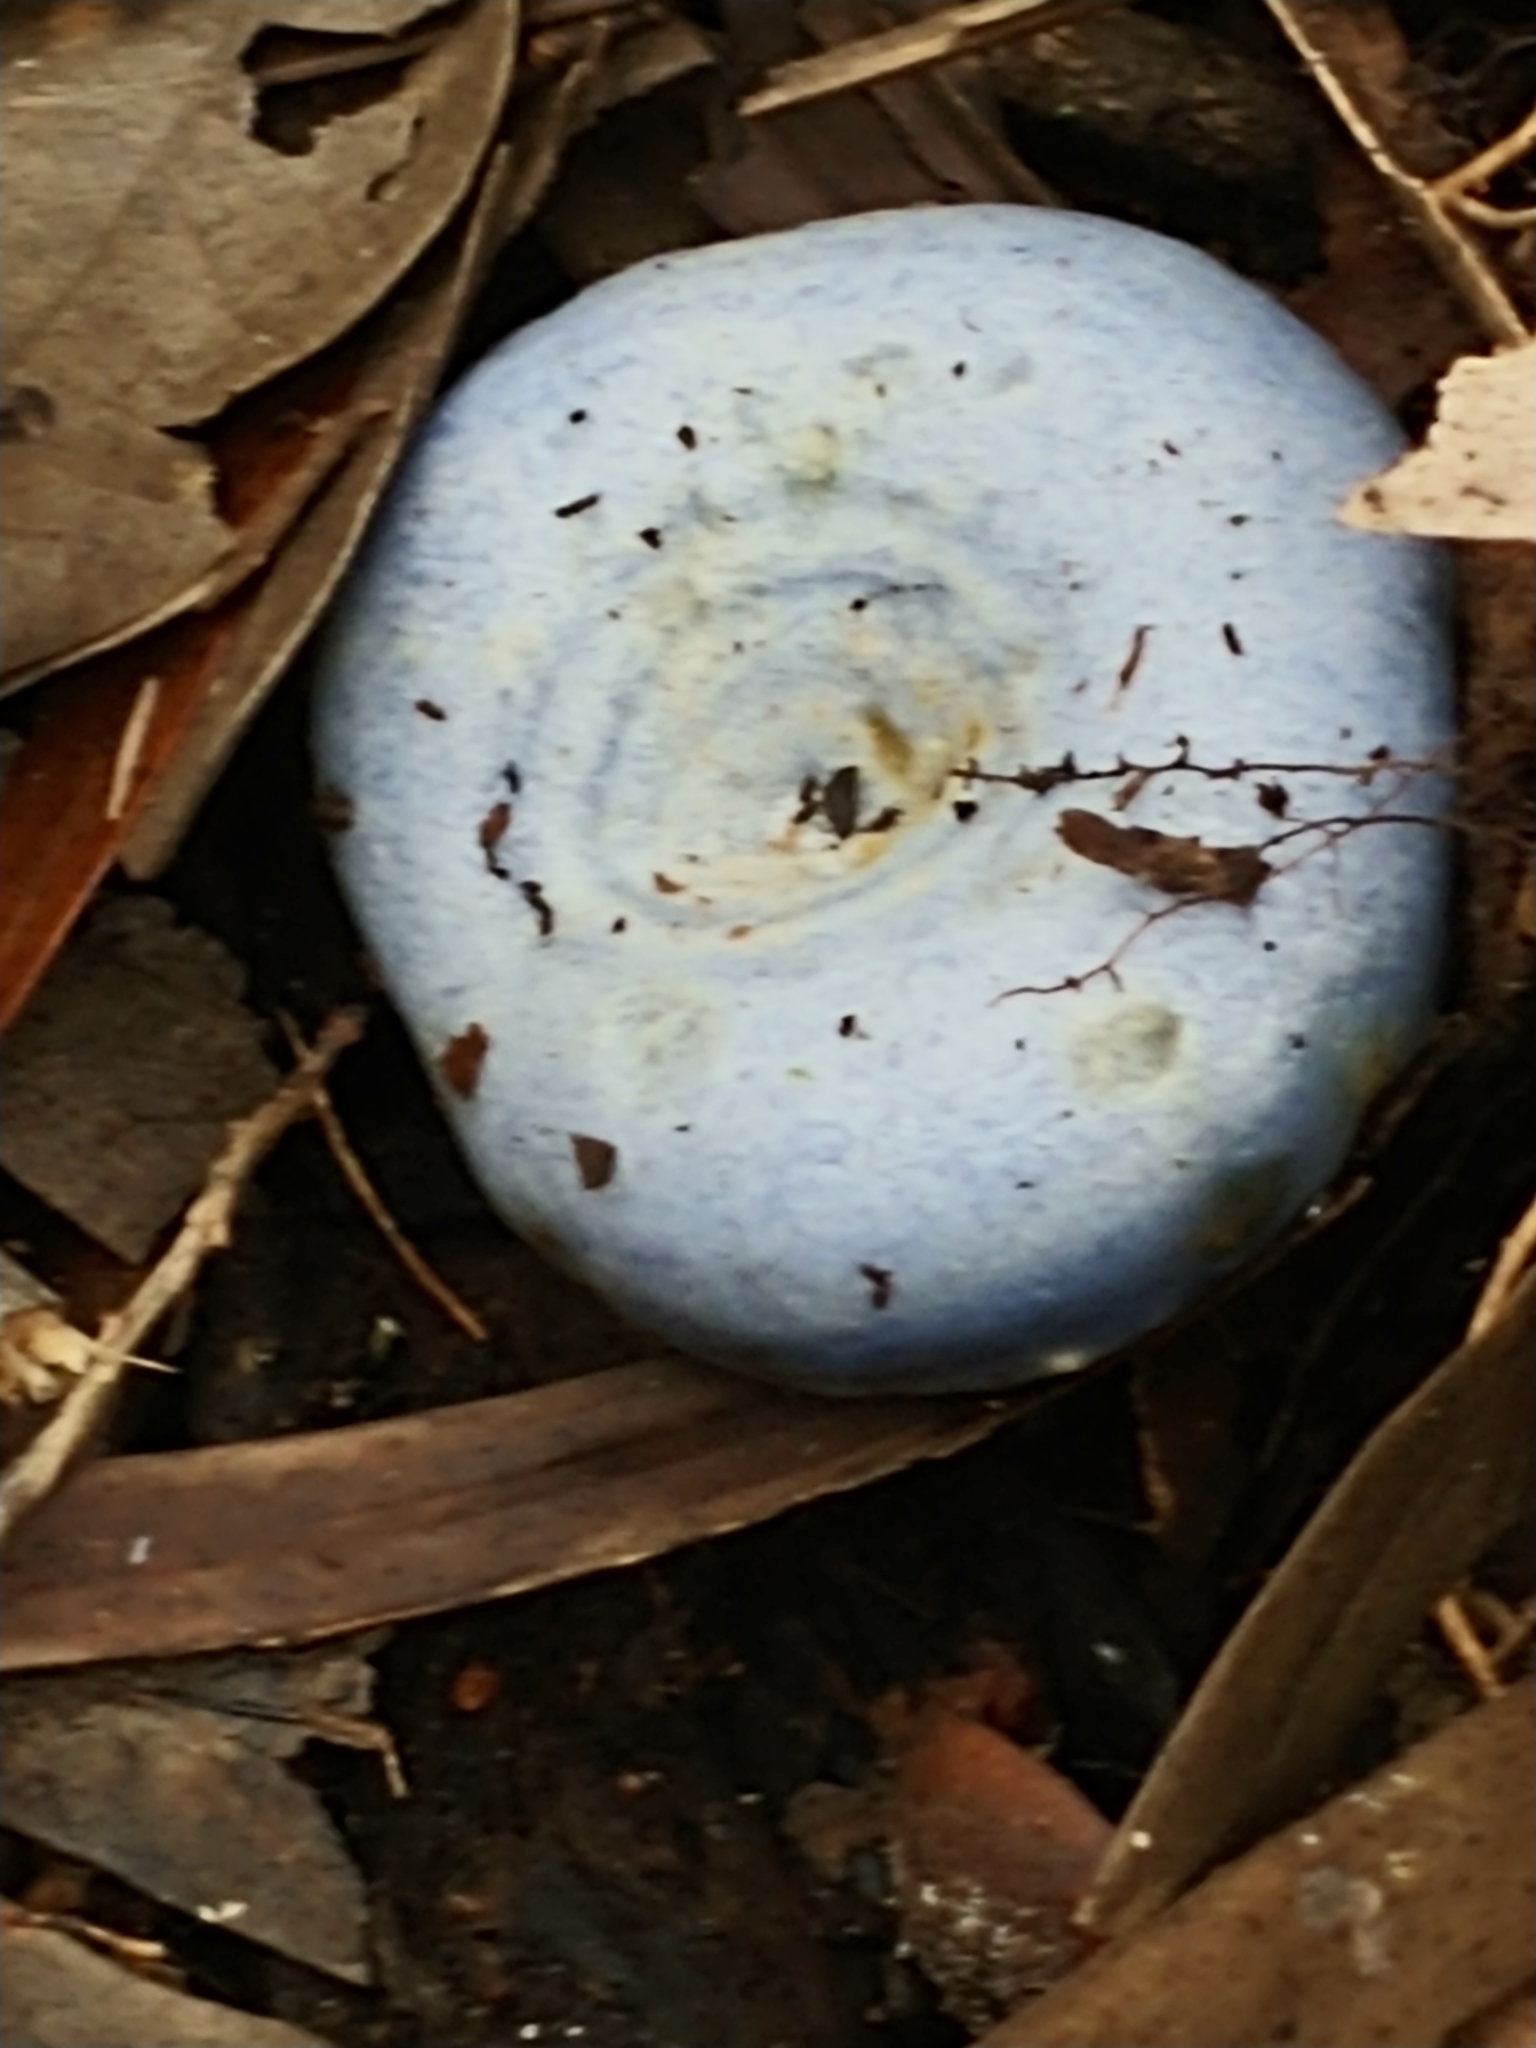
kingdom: Fungi
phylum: Basidiomycota
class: Agaricomycetes
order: Russulales
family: Russulaceae
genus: Lactarius
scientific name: Lactarius indigo
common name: Indigo milk cap
